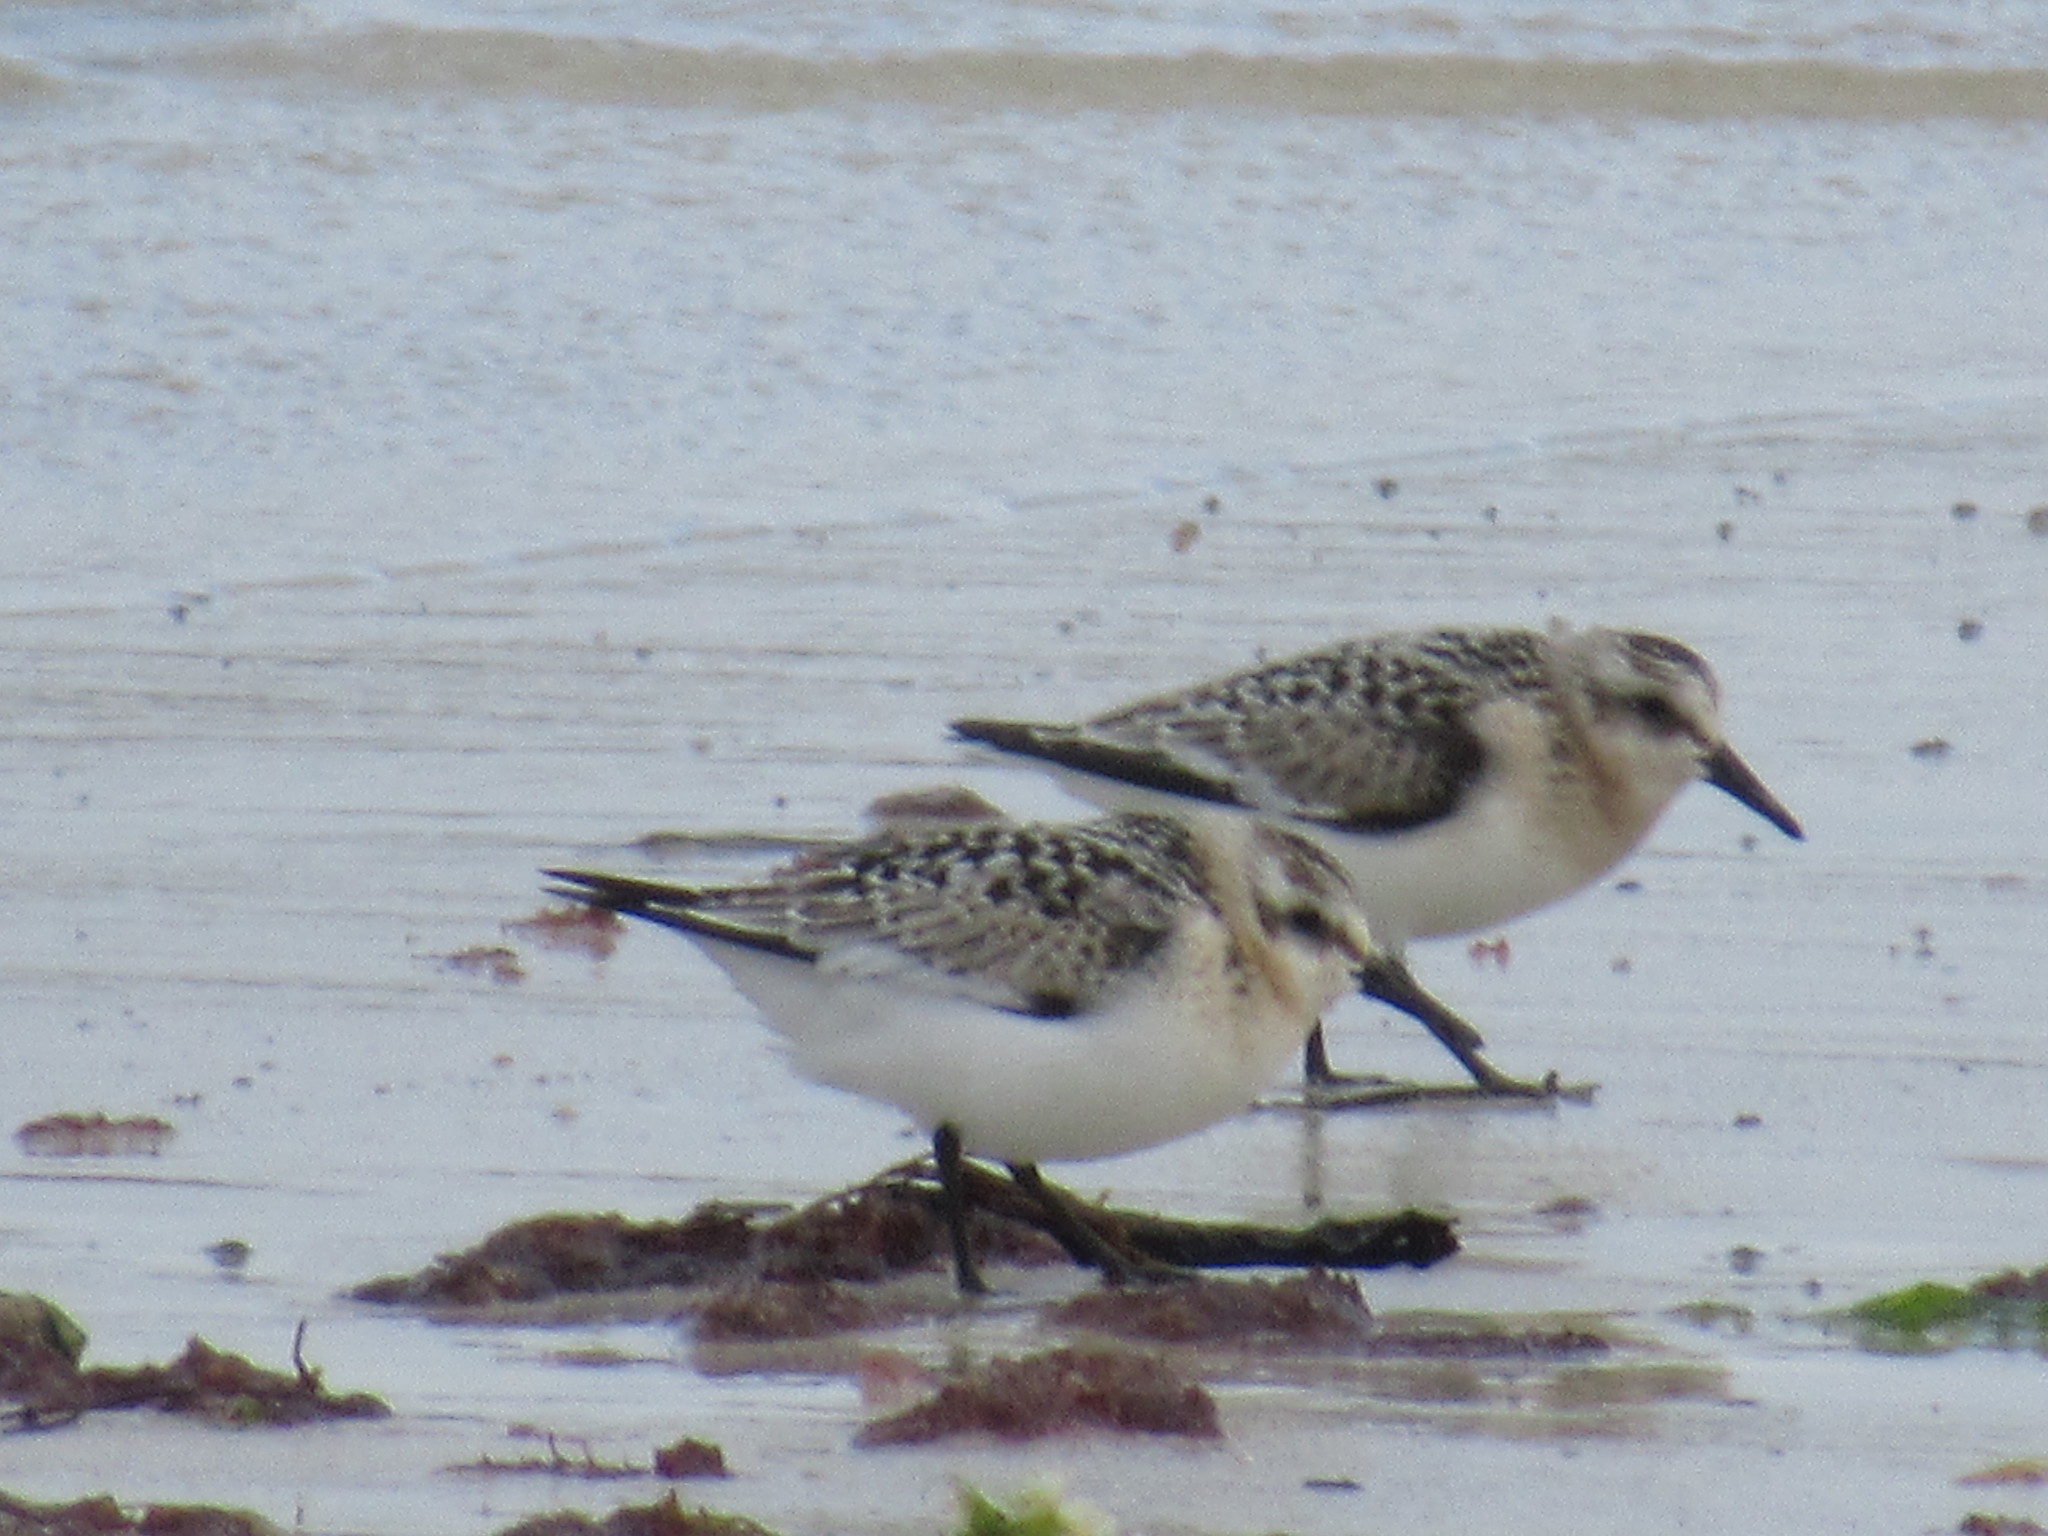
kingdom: Animalia
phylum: Chordata
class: Aves
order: Charadriiformes
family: Scolopacidae
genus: Calidris
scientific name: Calidris alba
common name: Sanderling
